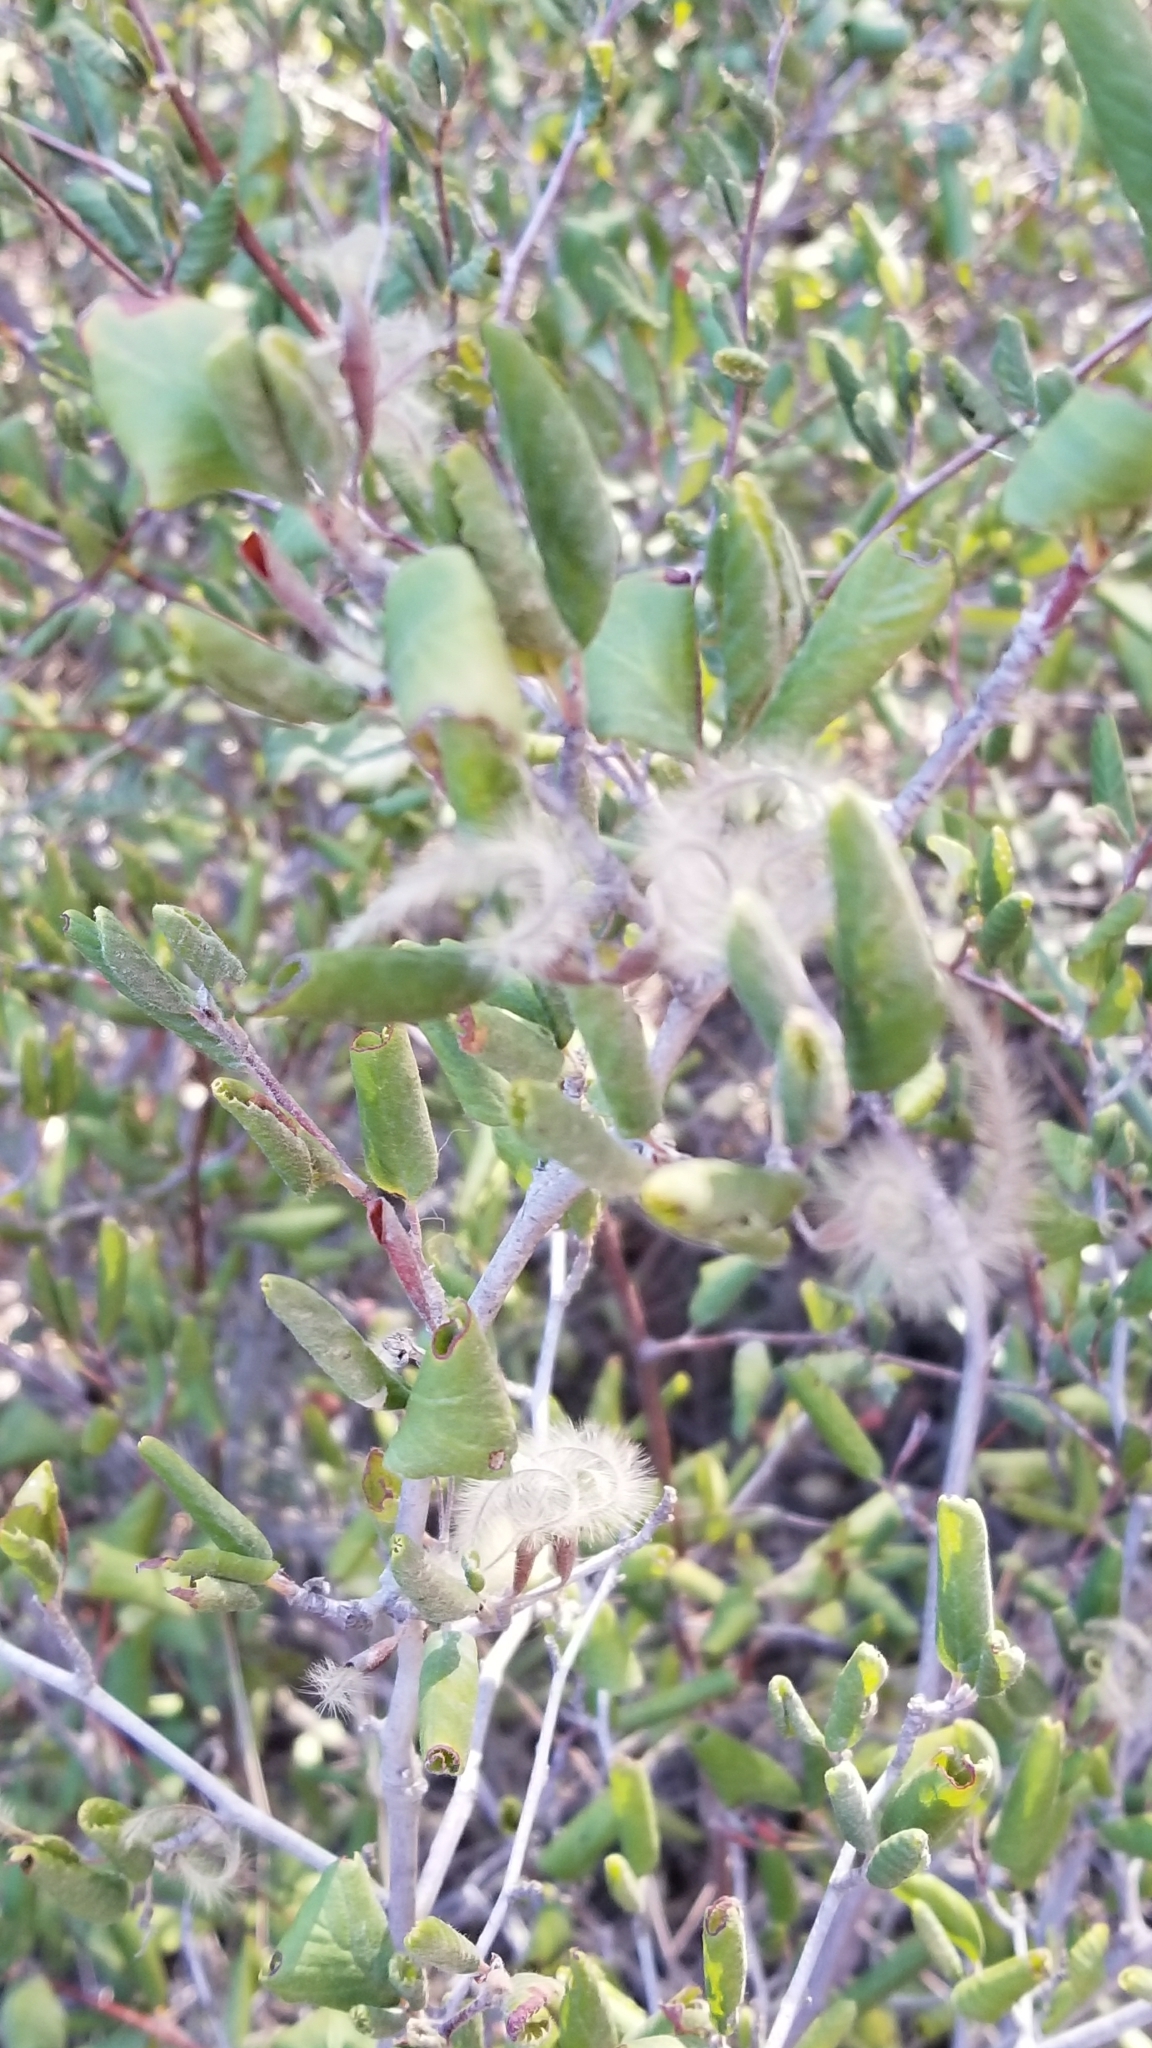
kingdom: Plantae
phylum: Tracheophyta
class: Magnoliopsida
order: Rosales
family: Rosaceae
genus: Cercocarpus
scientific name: Cercocarpus betuloides
